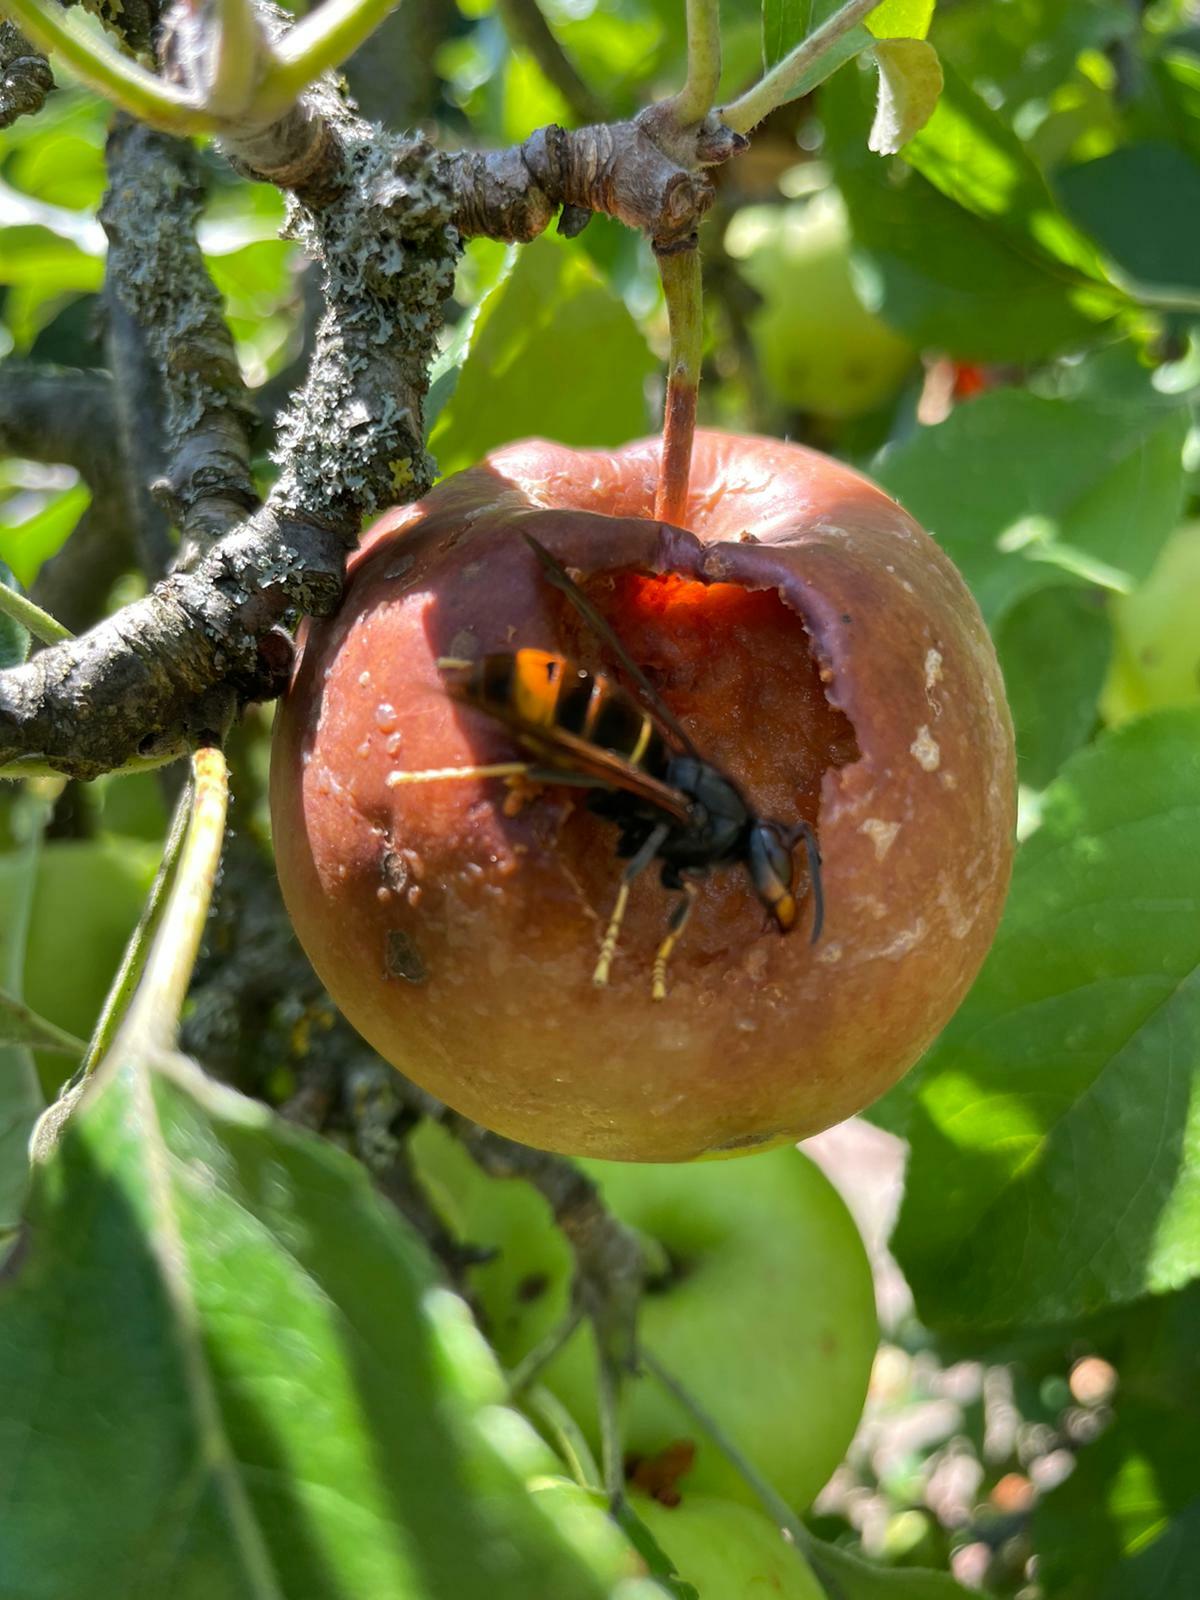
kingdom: Animalia
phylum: Arthropoda
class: Insecta
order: Hymenoptera
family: Vespidae
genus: Vespa
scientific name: Vespa velutina
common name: Asian hornet
